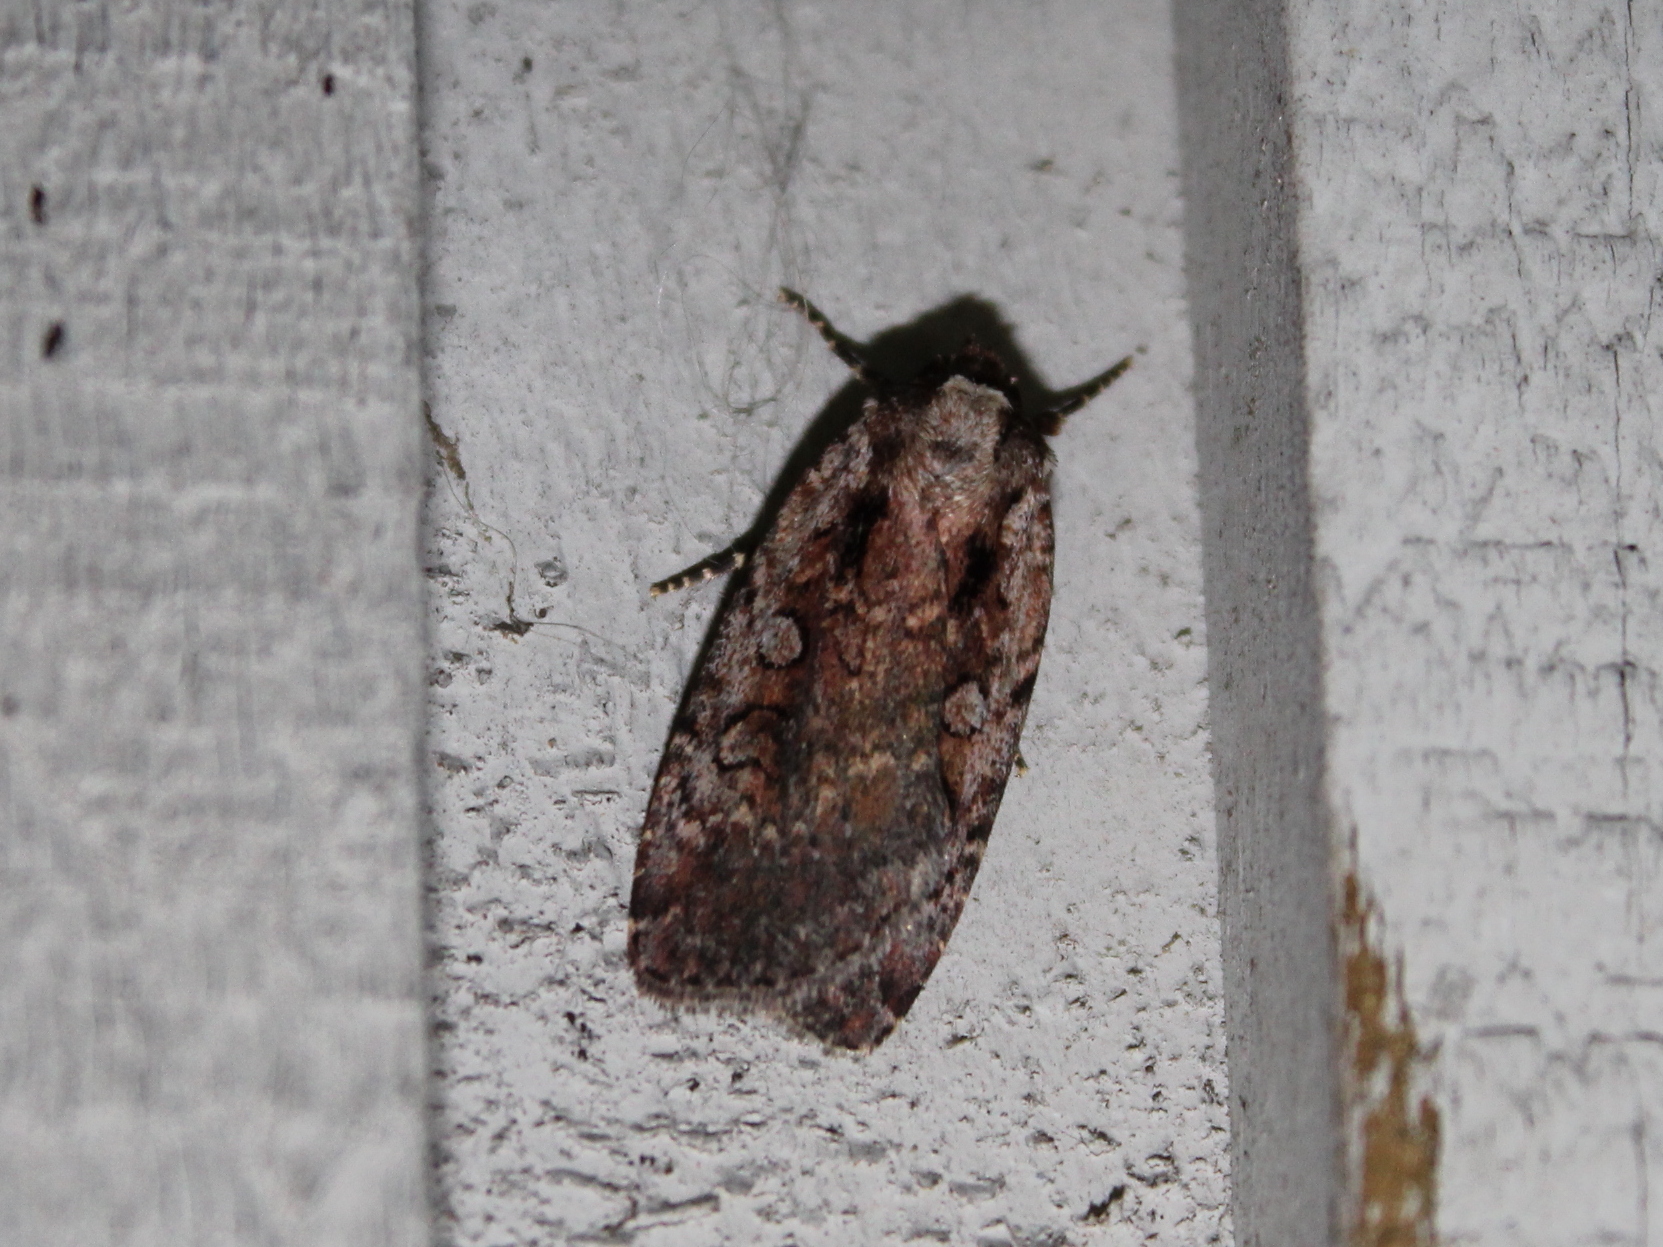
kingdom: Animalia
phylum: Arthropoda
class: Insecta
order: Lepidoptera
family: Noctuidae
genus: Eueretagrotis
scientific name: Eueretagrotis attentus
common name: Attentive dart
